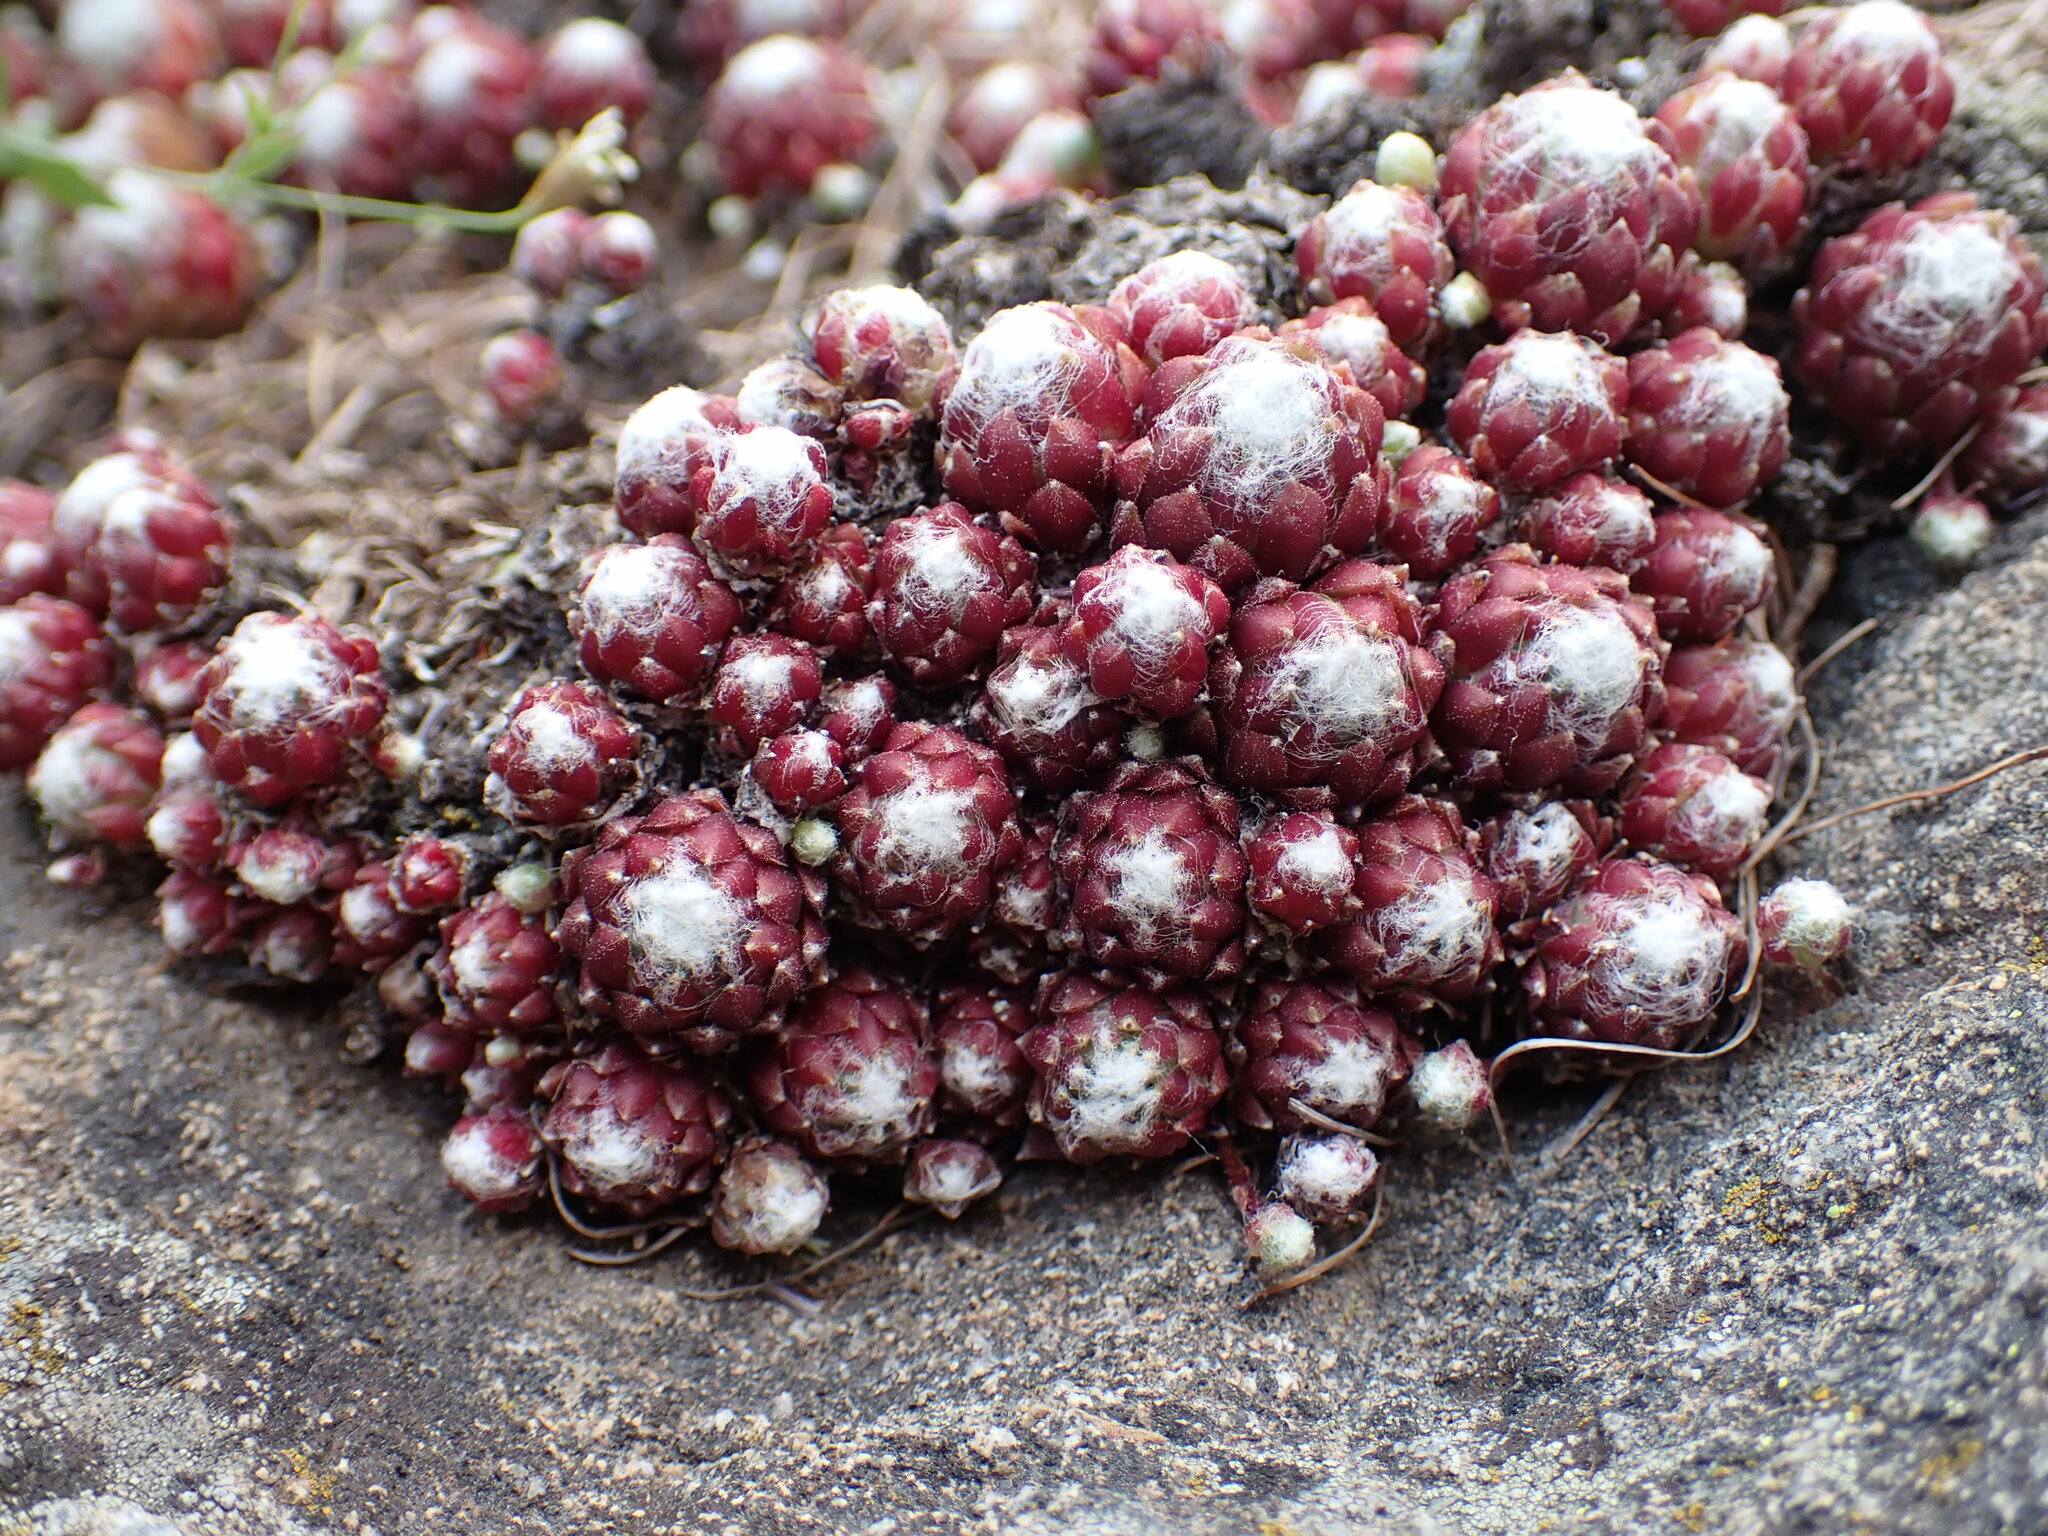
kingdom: Plantae
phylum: Tracheophyta
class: Magnoliopsida
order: Saxifragales
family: Crassulaceae
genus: Sempervivum
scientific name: Sempervivum arachnoideum
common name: Cobweb house-leek
